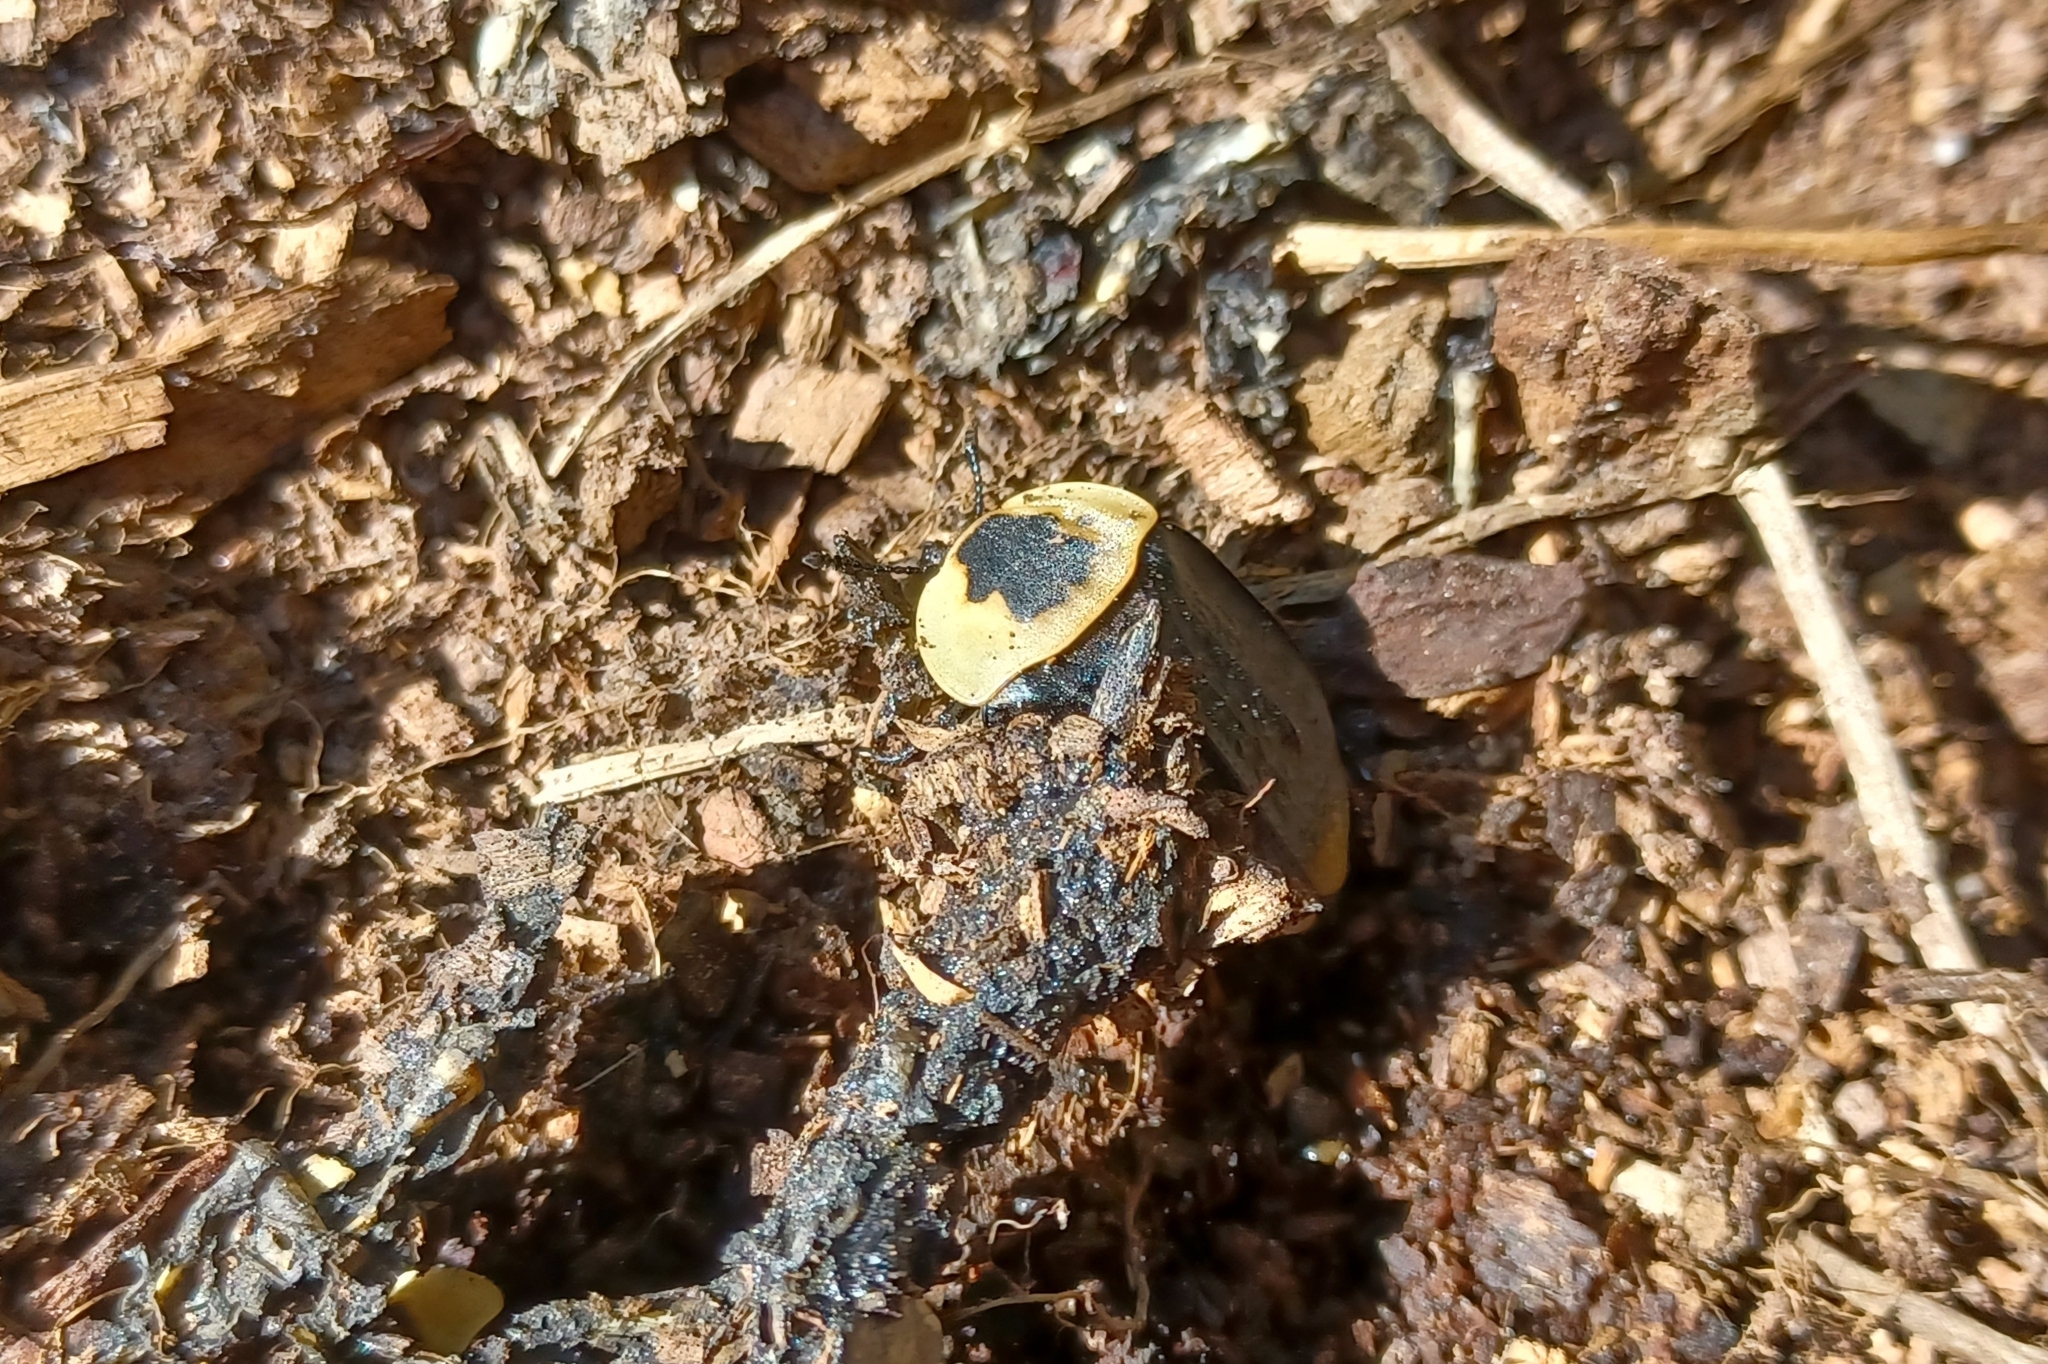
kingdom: Animalia
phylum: Arthropoda
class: Insecta
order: Coleoptera
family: Staphylinidae
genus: Necrophila
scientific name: Necrophila americana
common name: American carrion beetle
